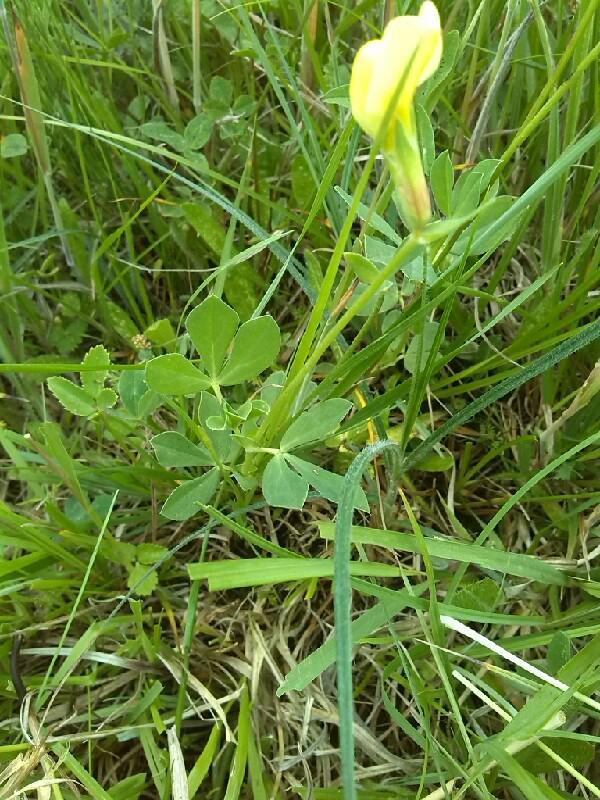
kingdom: Plantae
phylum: Tracheophyta
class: Magnoliopsida
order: Fabales
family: Fabaceae
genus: Lotus
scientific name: Lotus maritimus
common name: Dragon's-teeth
